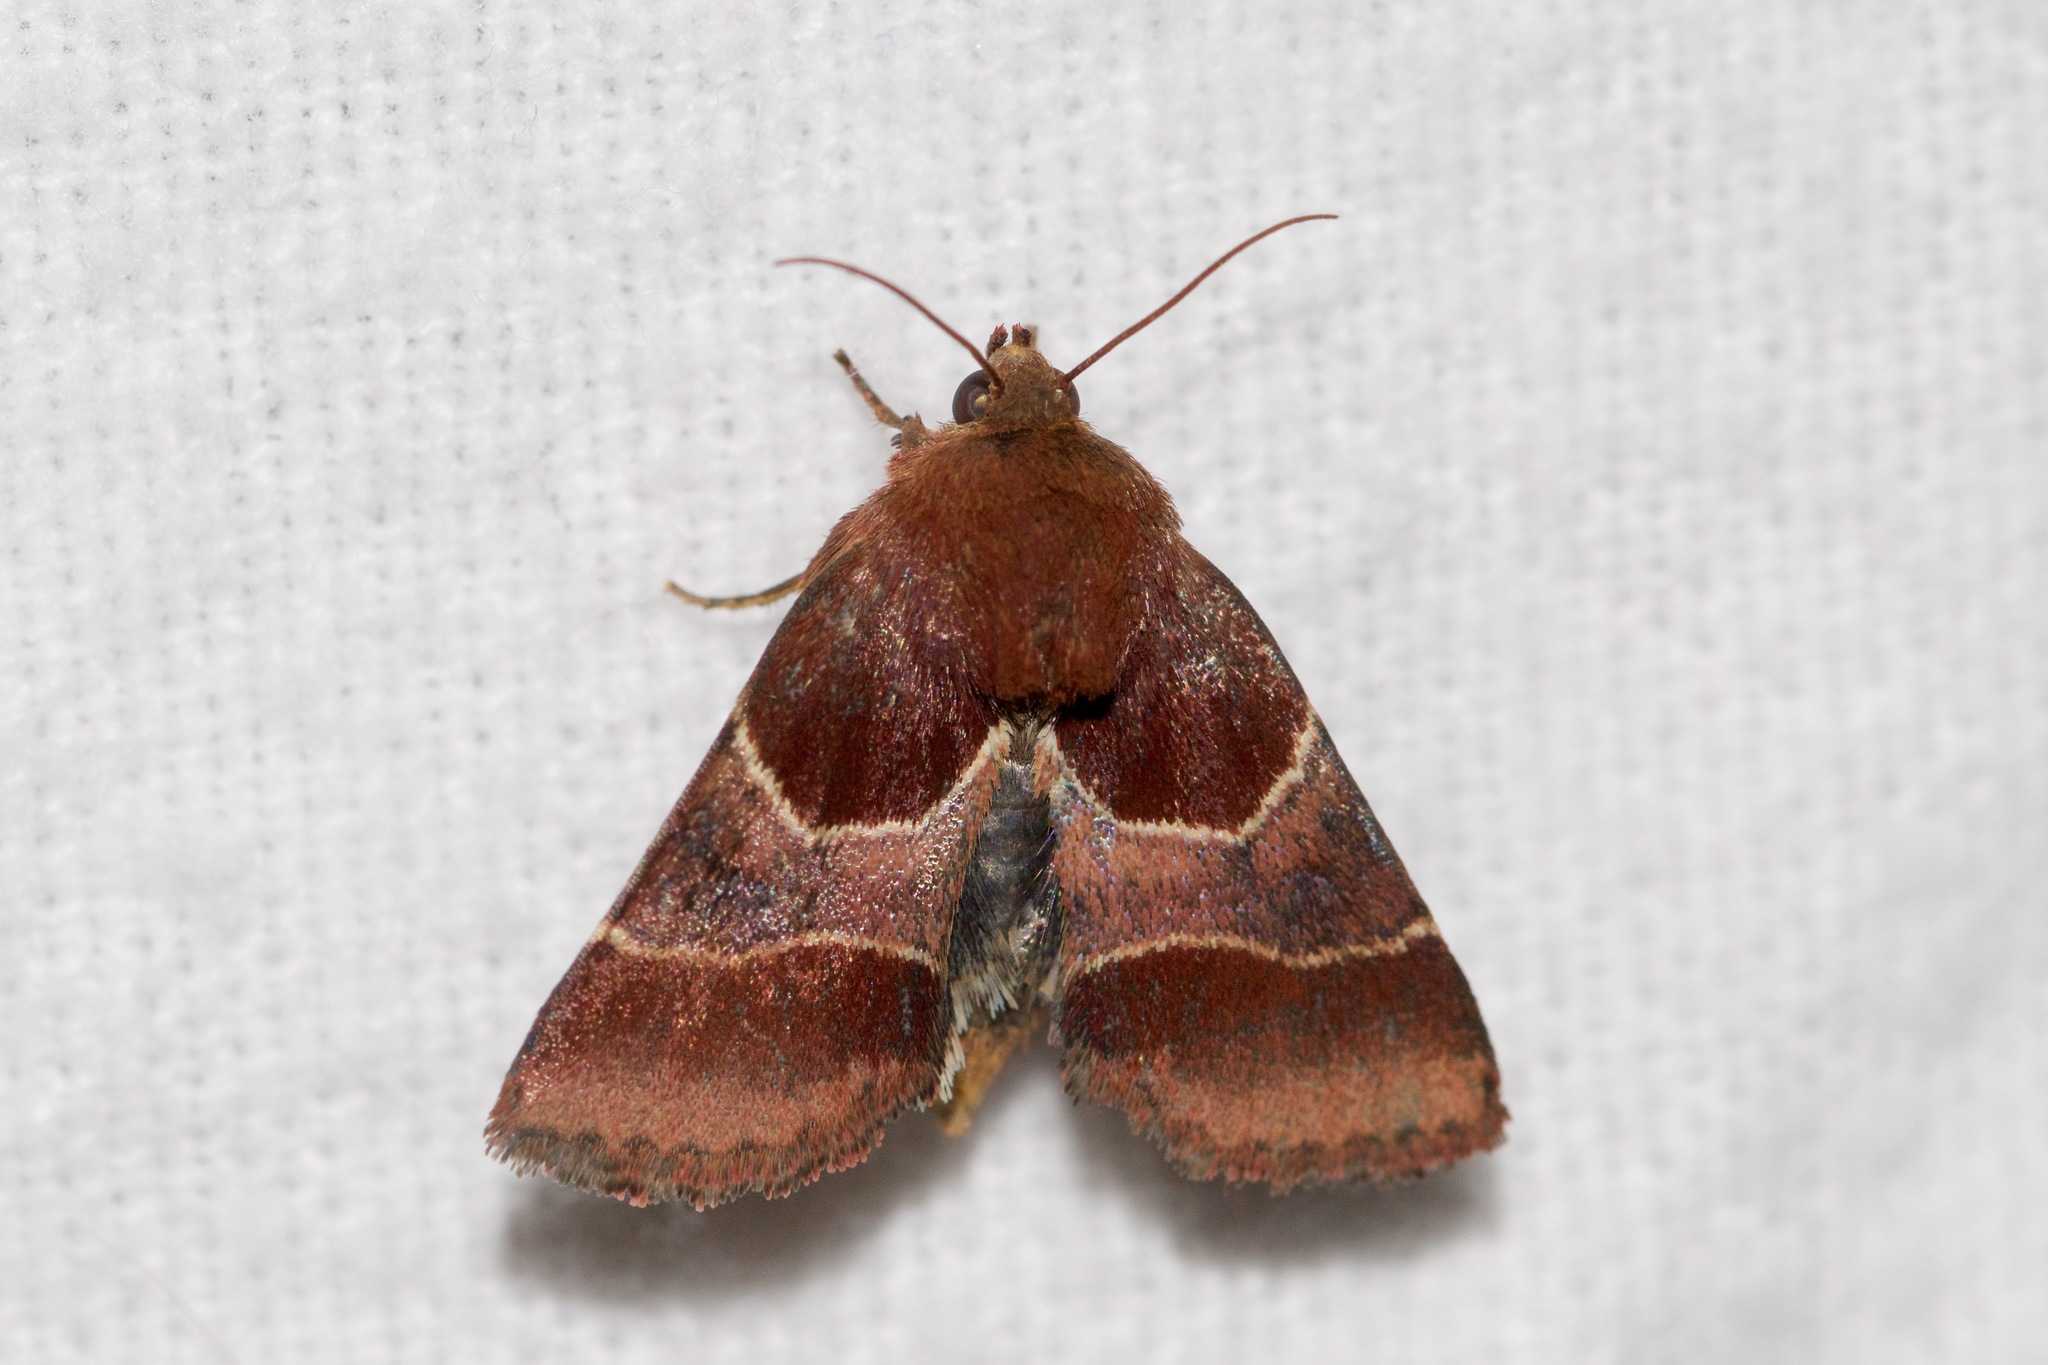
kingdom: Animalia
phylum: Arthropoda
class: Insecta
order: Lepidoptera
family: Noctuidae
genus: Schinia
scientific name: Schinia arcigera
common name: Arcigera flower moth
